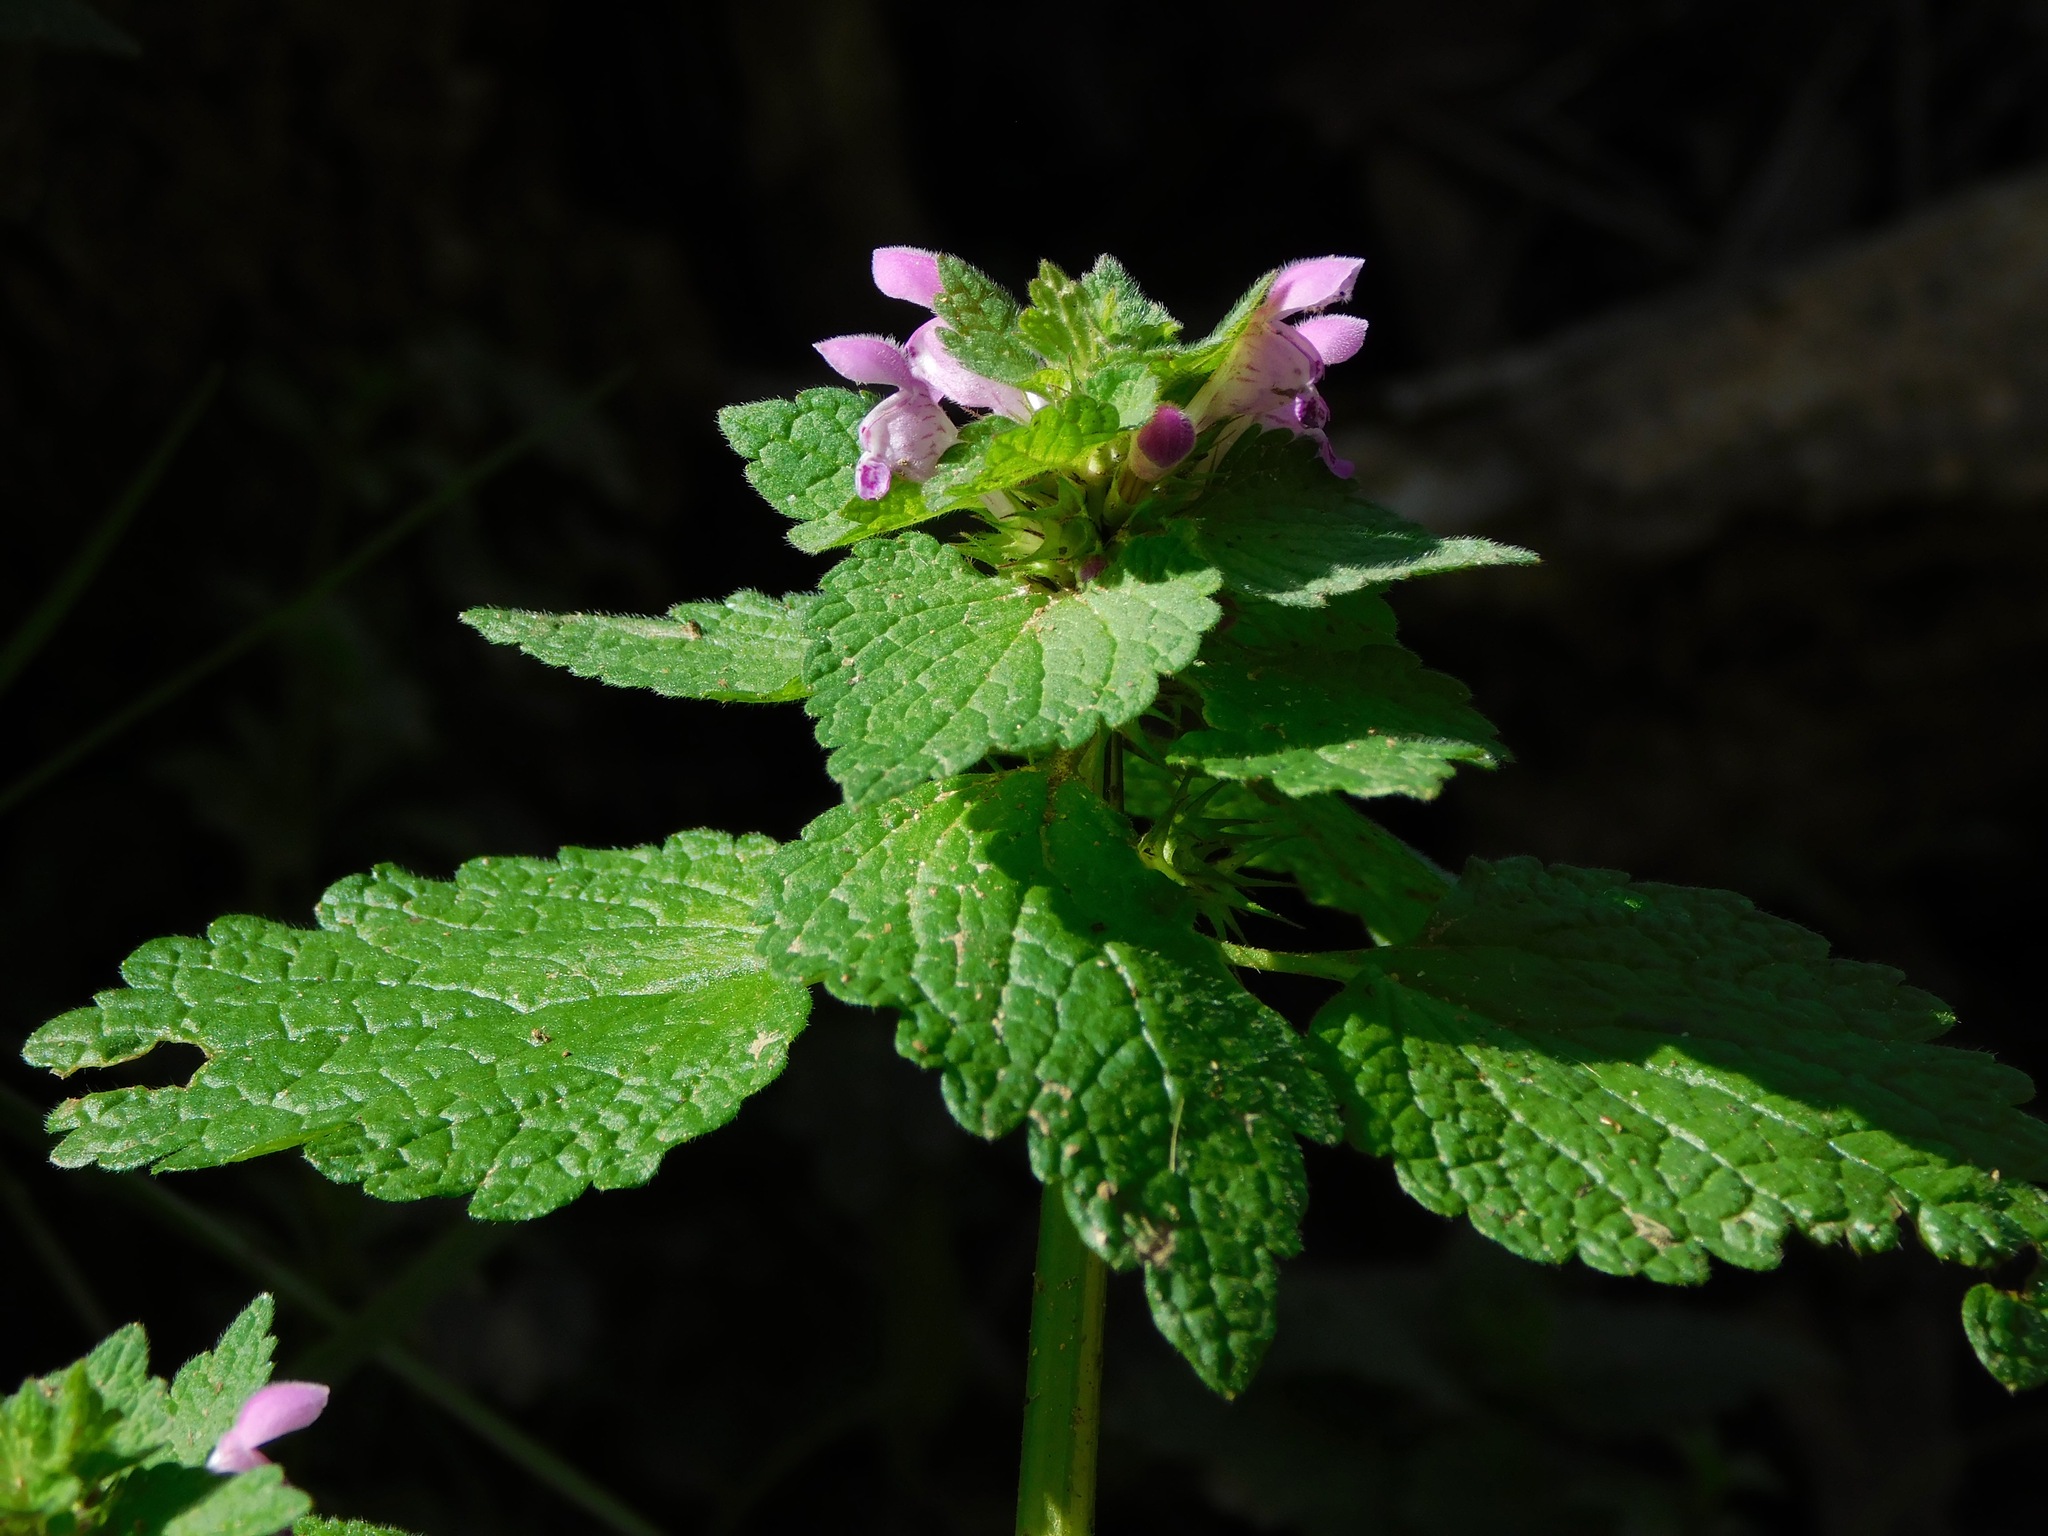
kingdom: Plantae
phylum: Tracheophyta
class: Magnoliopsida
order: Lamiales
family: Lamiaceae
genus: Lamium
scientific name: Lamium purpureum
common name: Red dead-nettle
